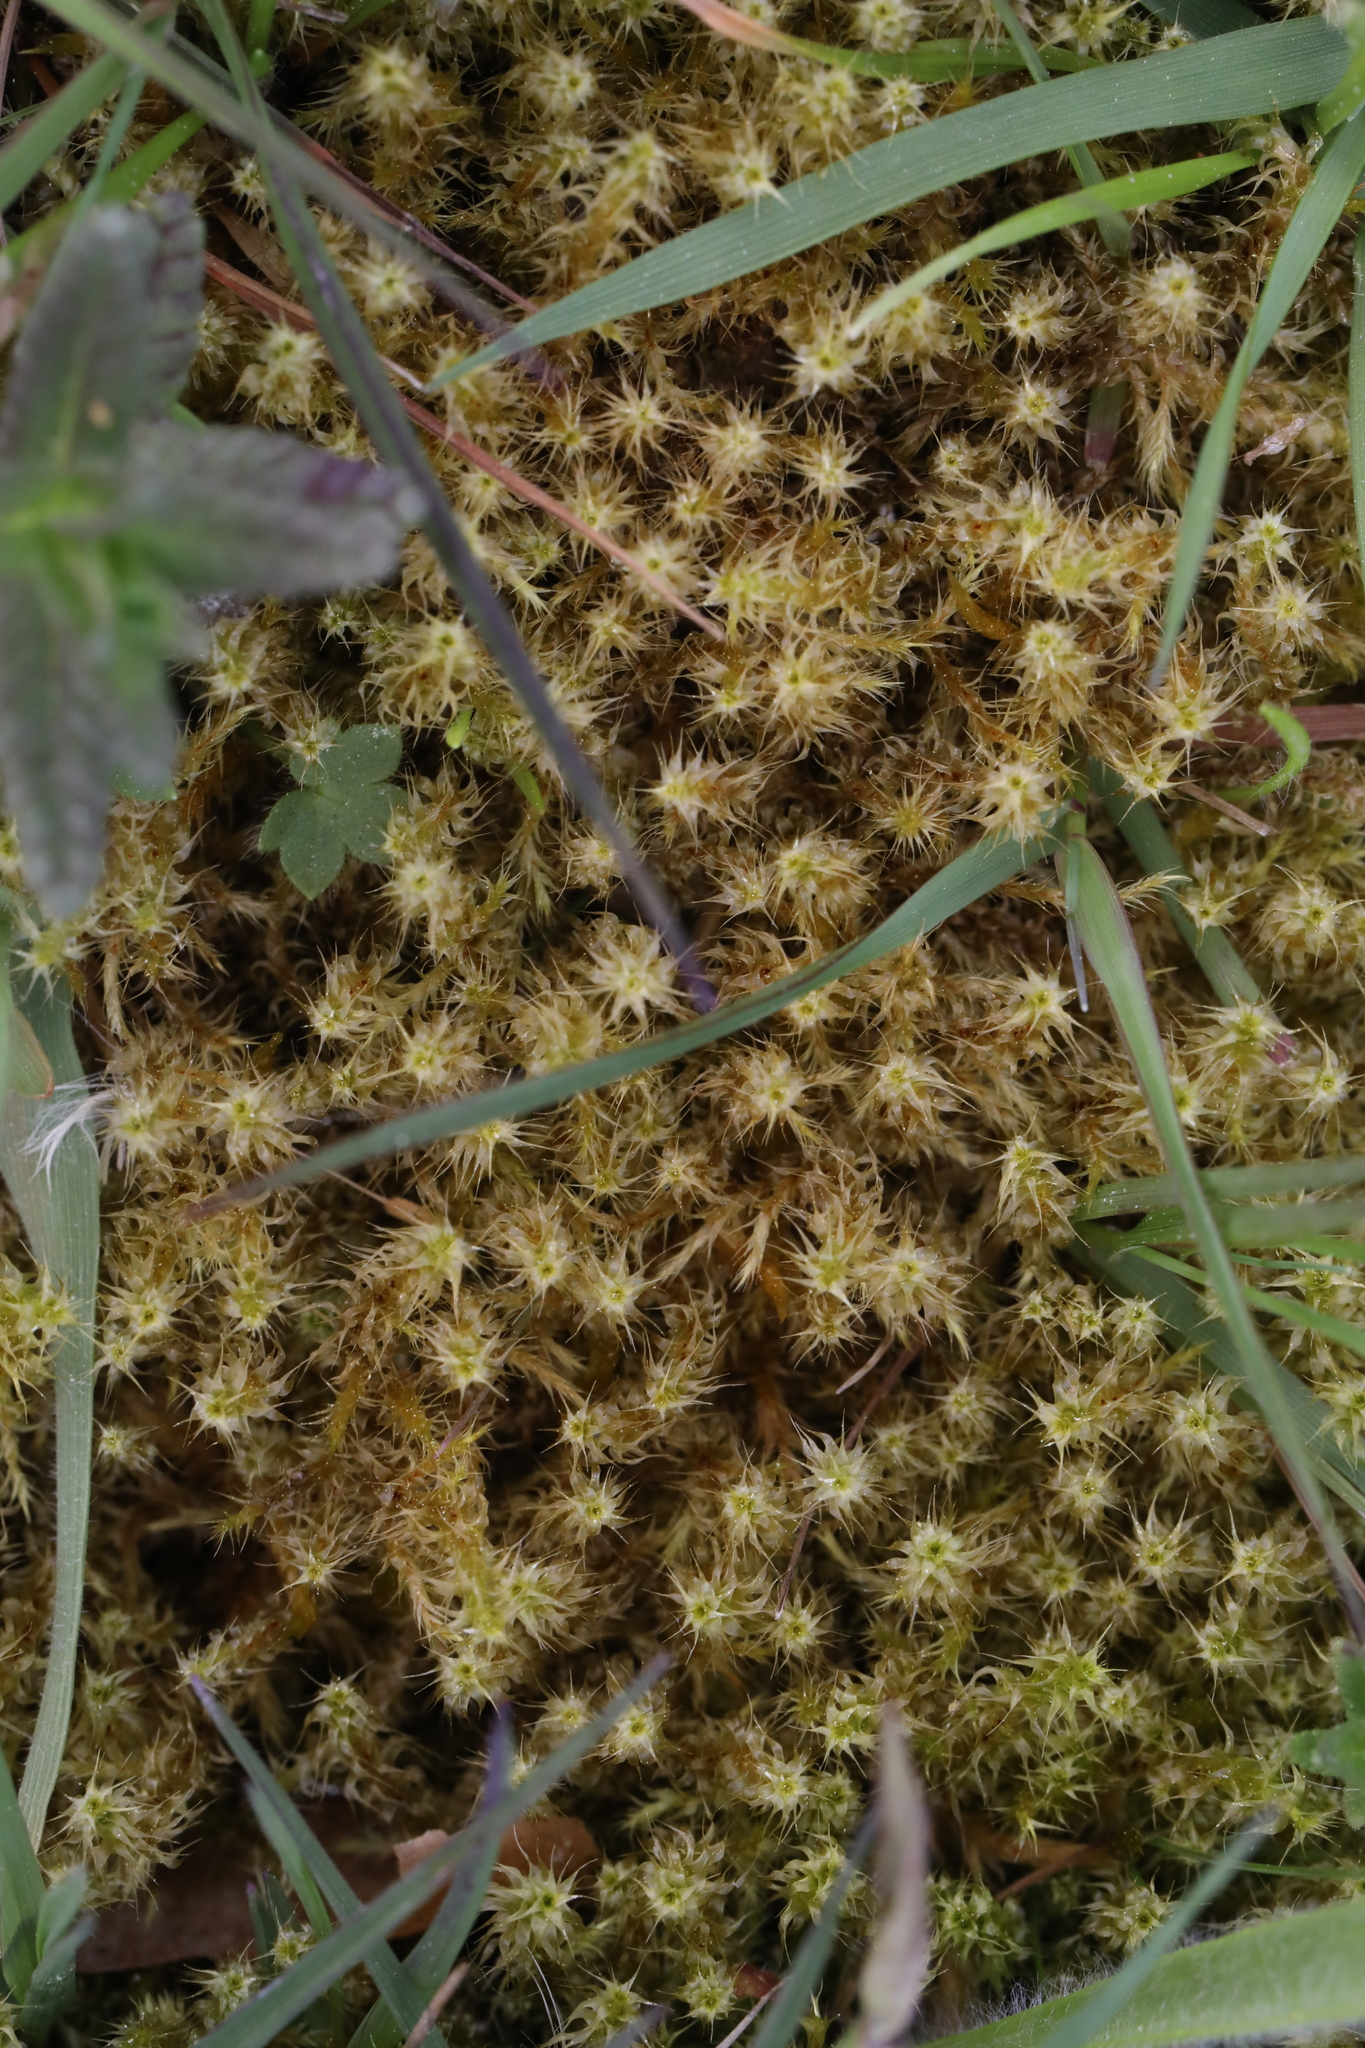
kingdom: Plantae
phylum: Bryophyta
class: Bryopsida
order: Hypnales
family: Hylocomiaceae
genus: Rhytidiadelphus
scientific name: Rhytidiadelphus squarrosus
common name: Springy turf-moss
